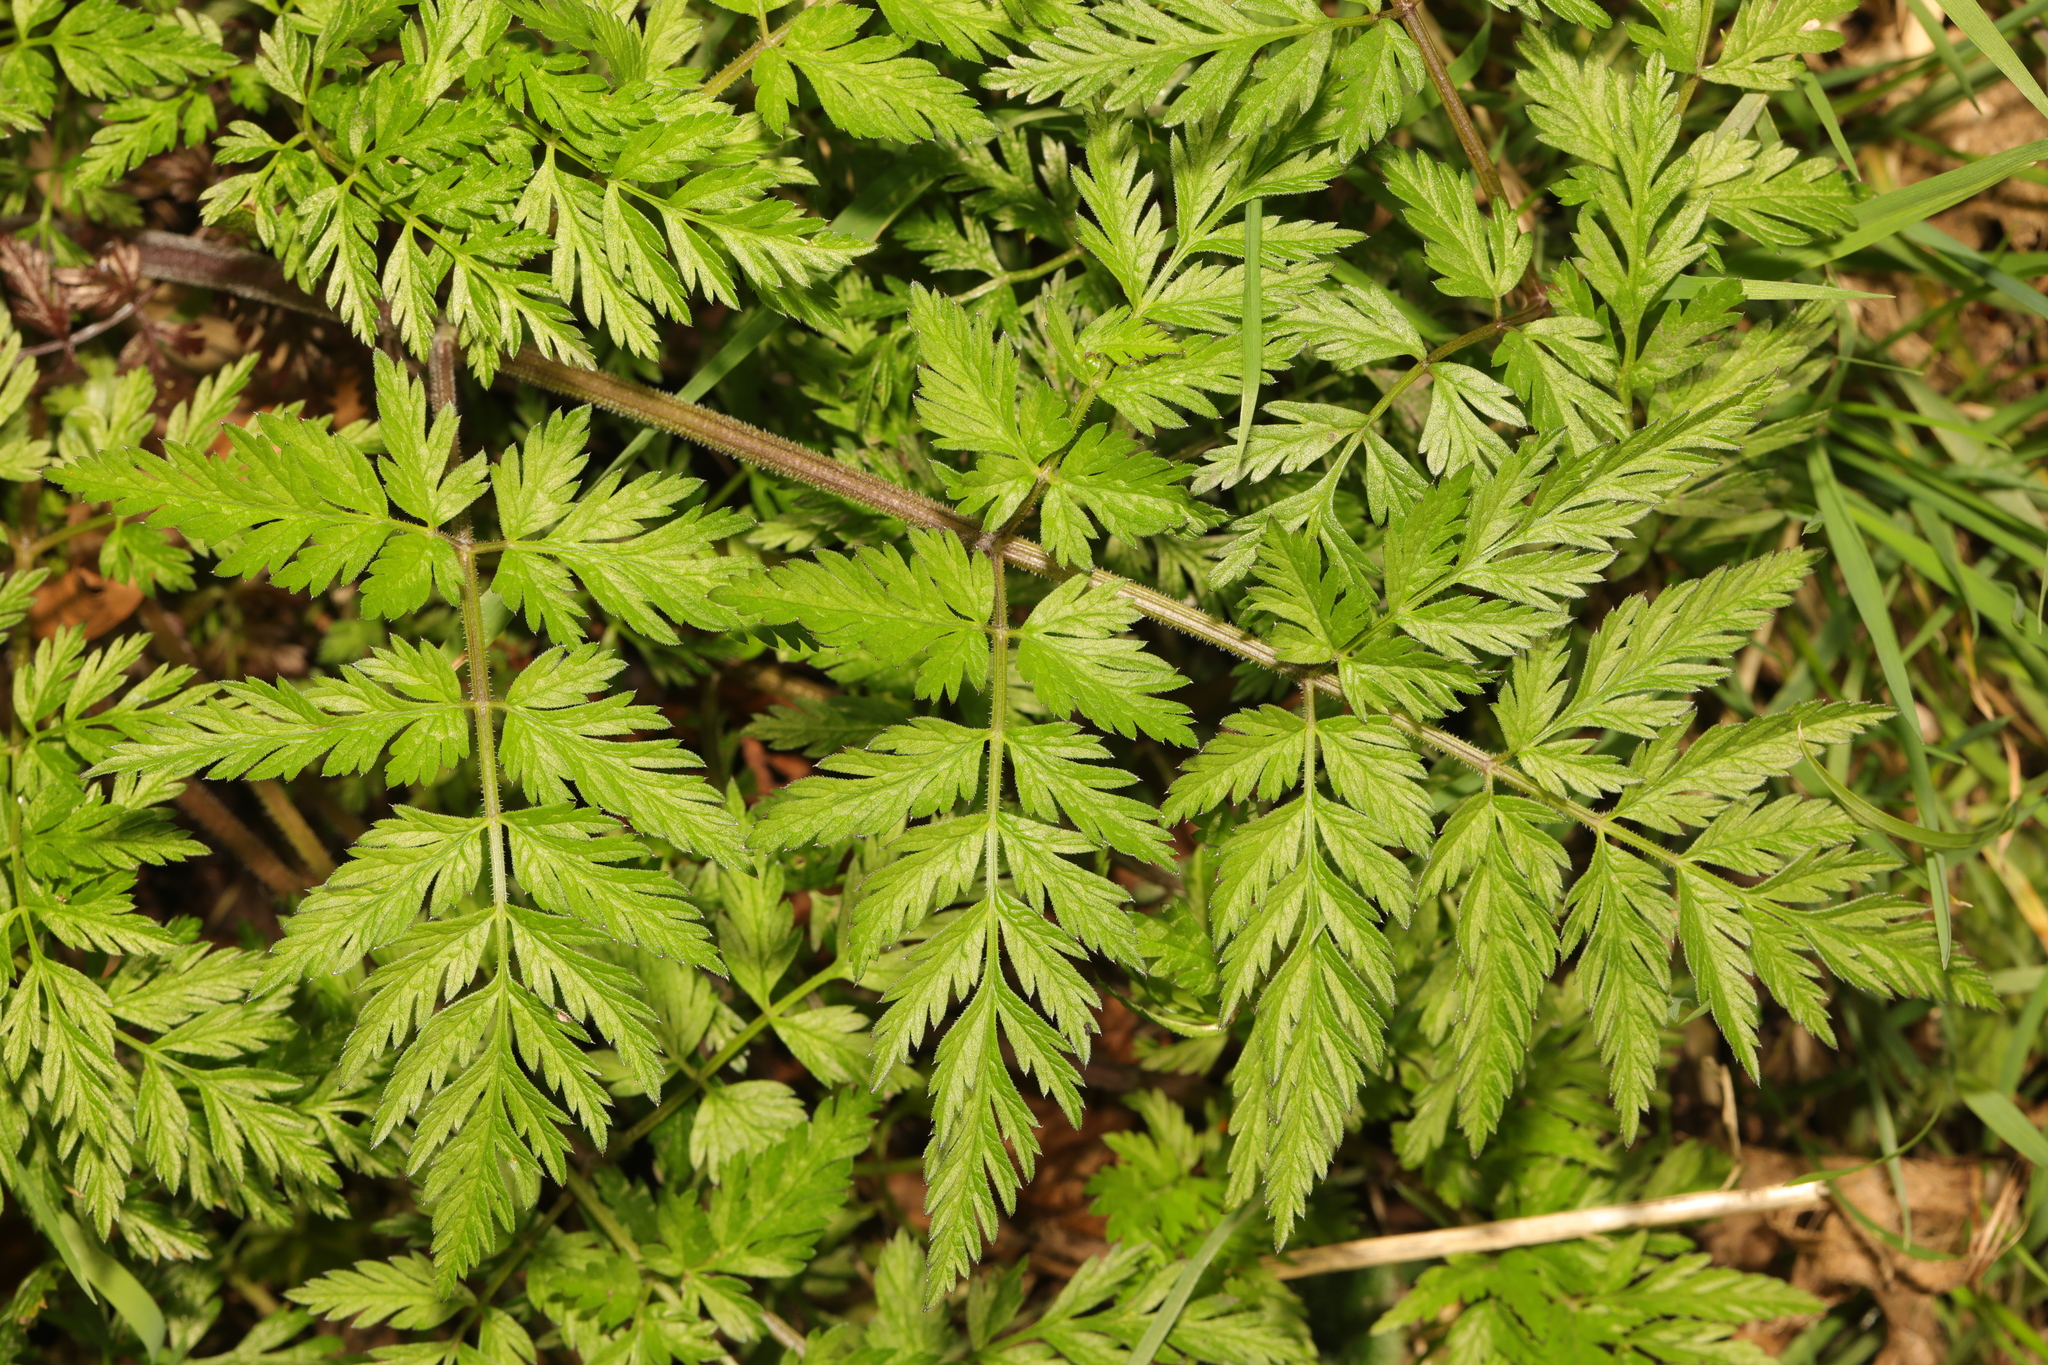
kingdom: Plantae
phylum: Tracheophyta
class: Magnoliopsida
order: Apiales
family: Apiaceae
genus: Anthriscus
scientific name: Anthriscus sylvestris
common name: Cow parsley
